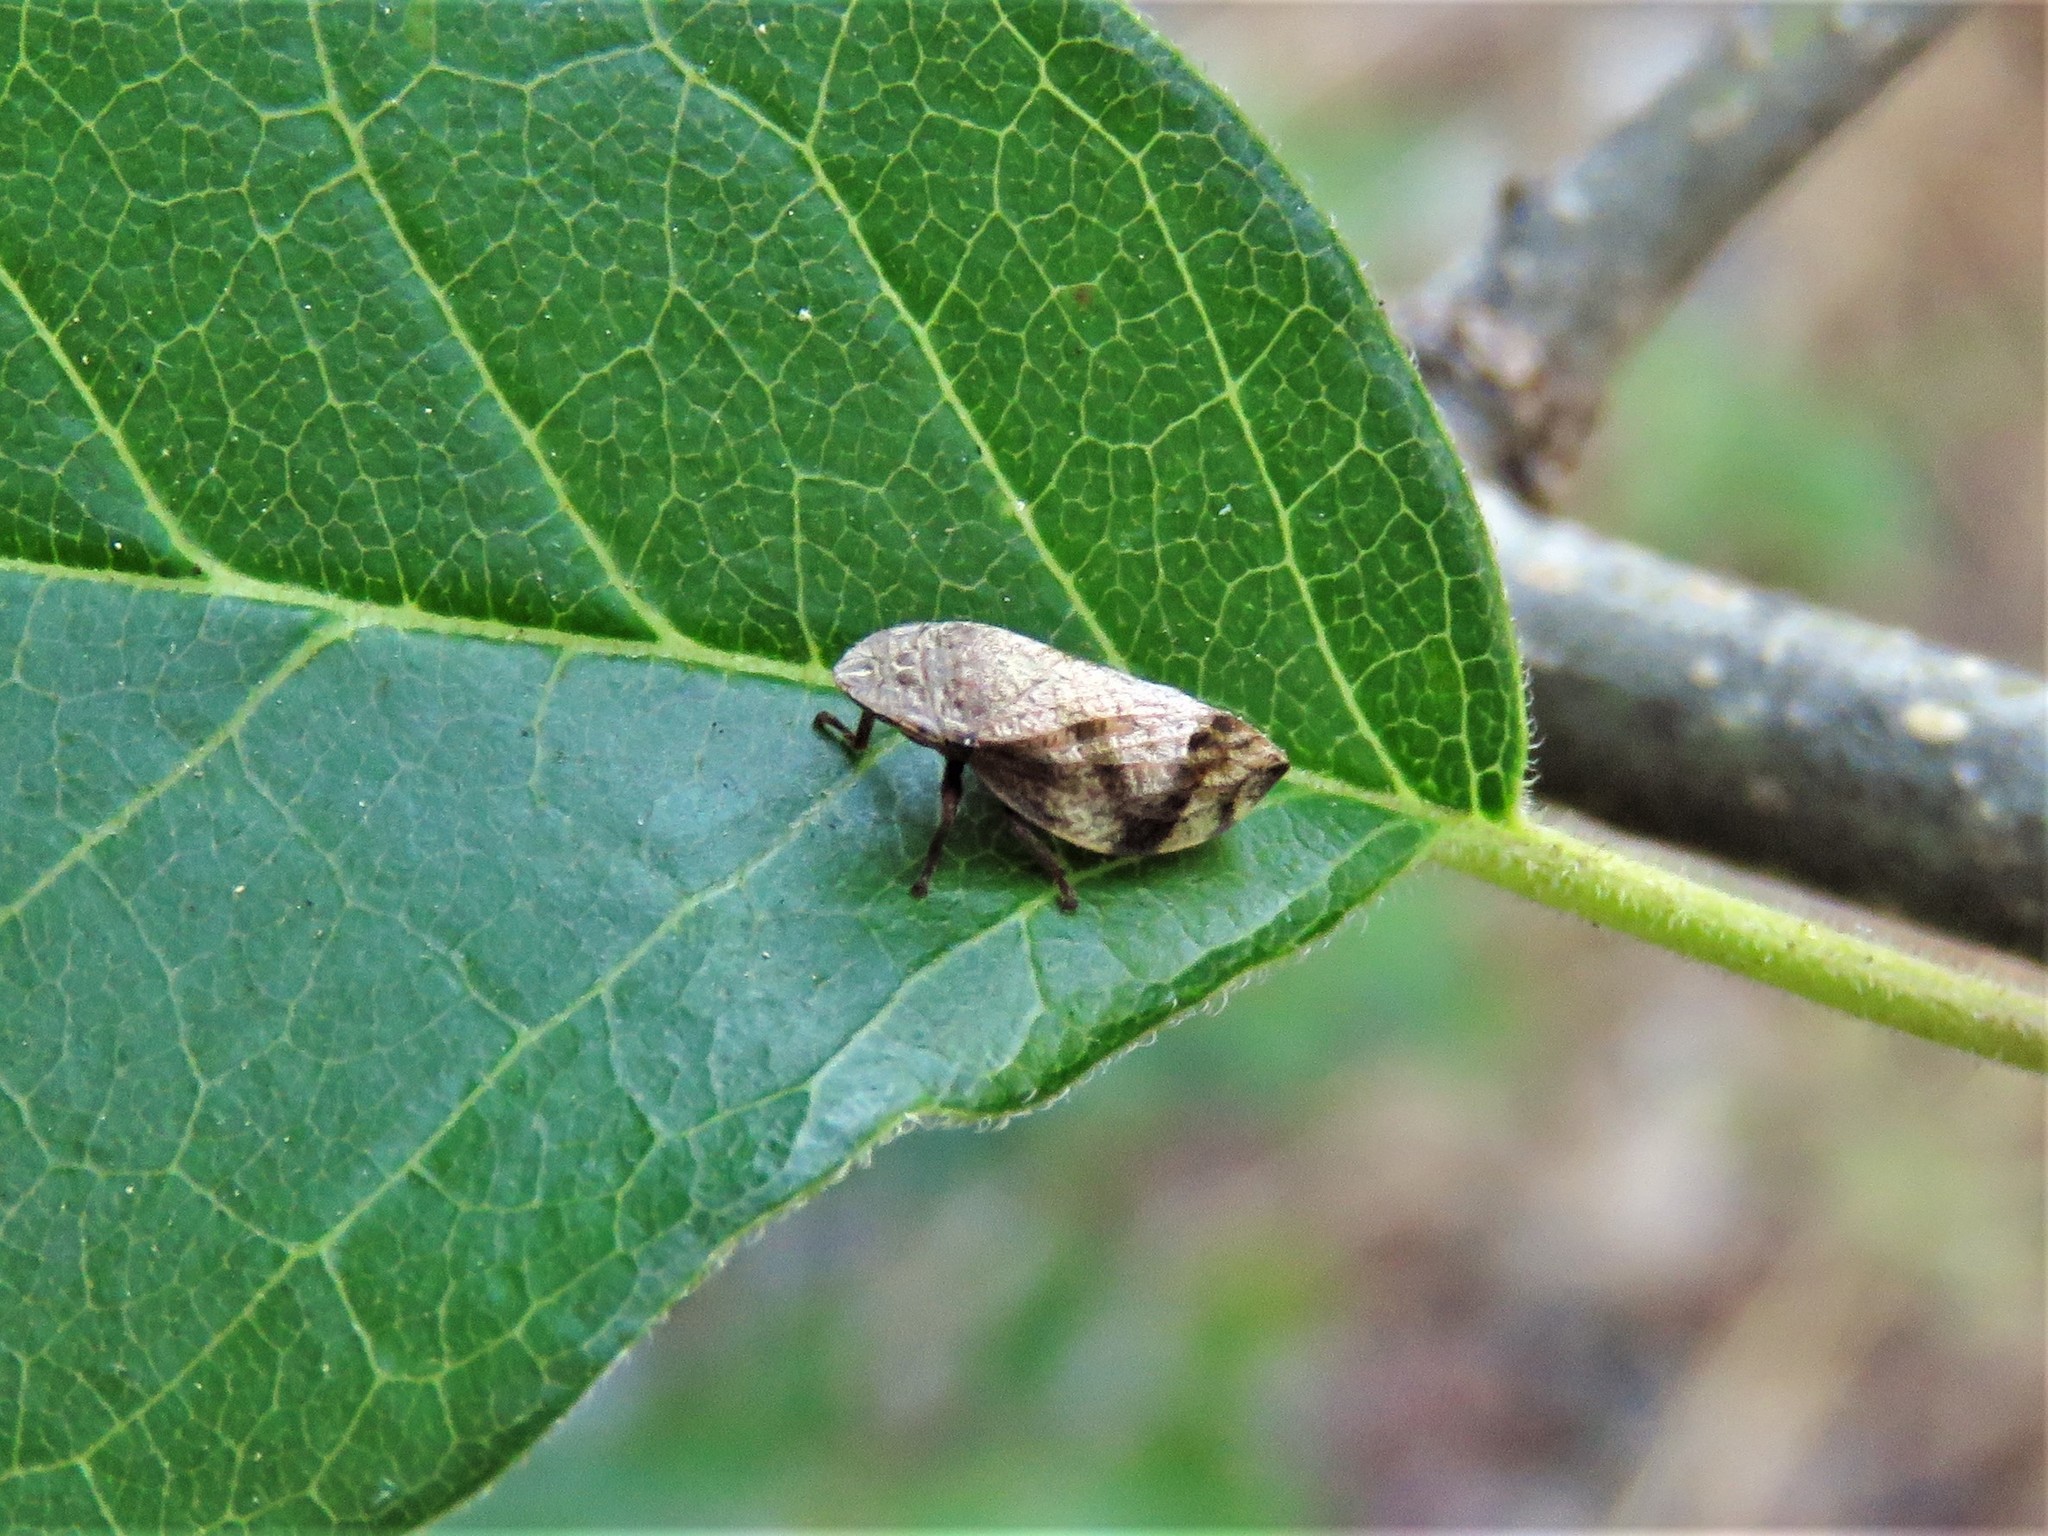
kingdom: Animalia
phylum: Arthropoda
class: Insecta
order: Hemiptera
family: Aphrophoridae
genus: Lepyronia
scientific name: Lepyronia quadrangularis
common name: Diamond-backed spittlebug
